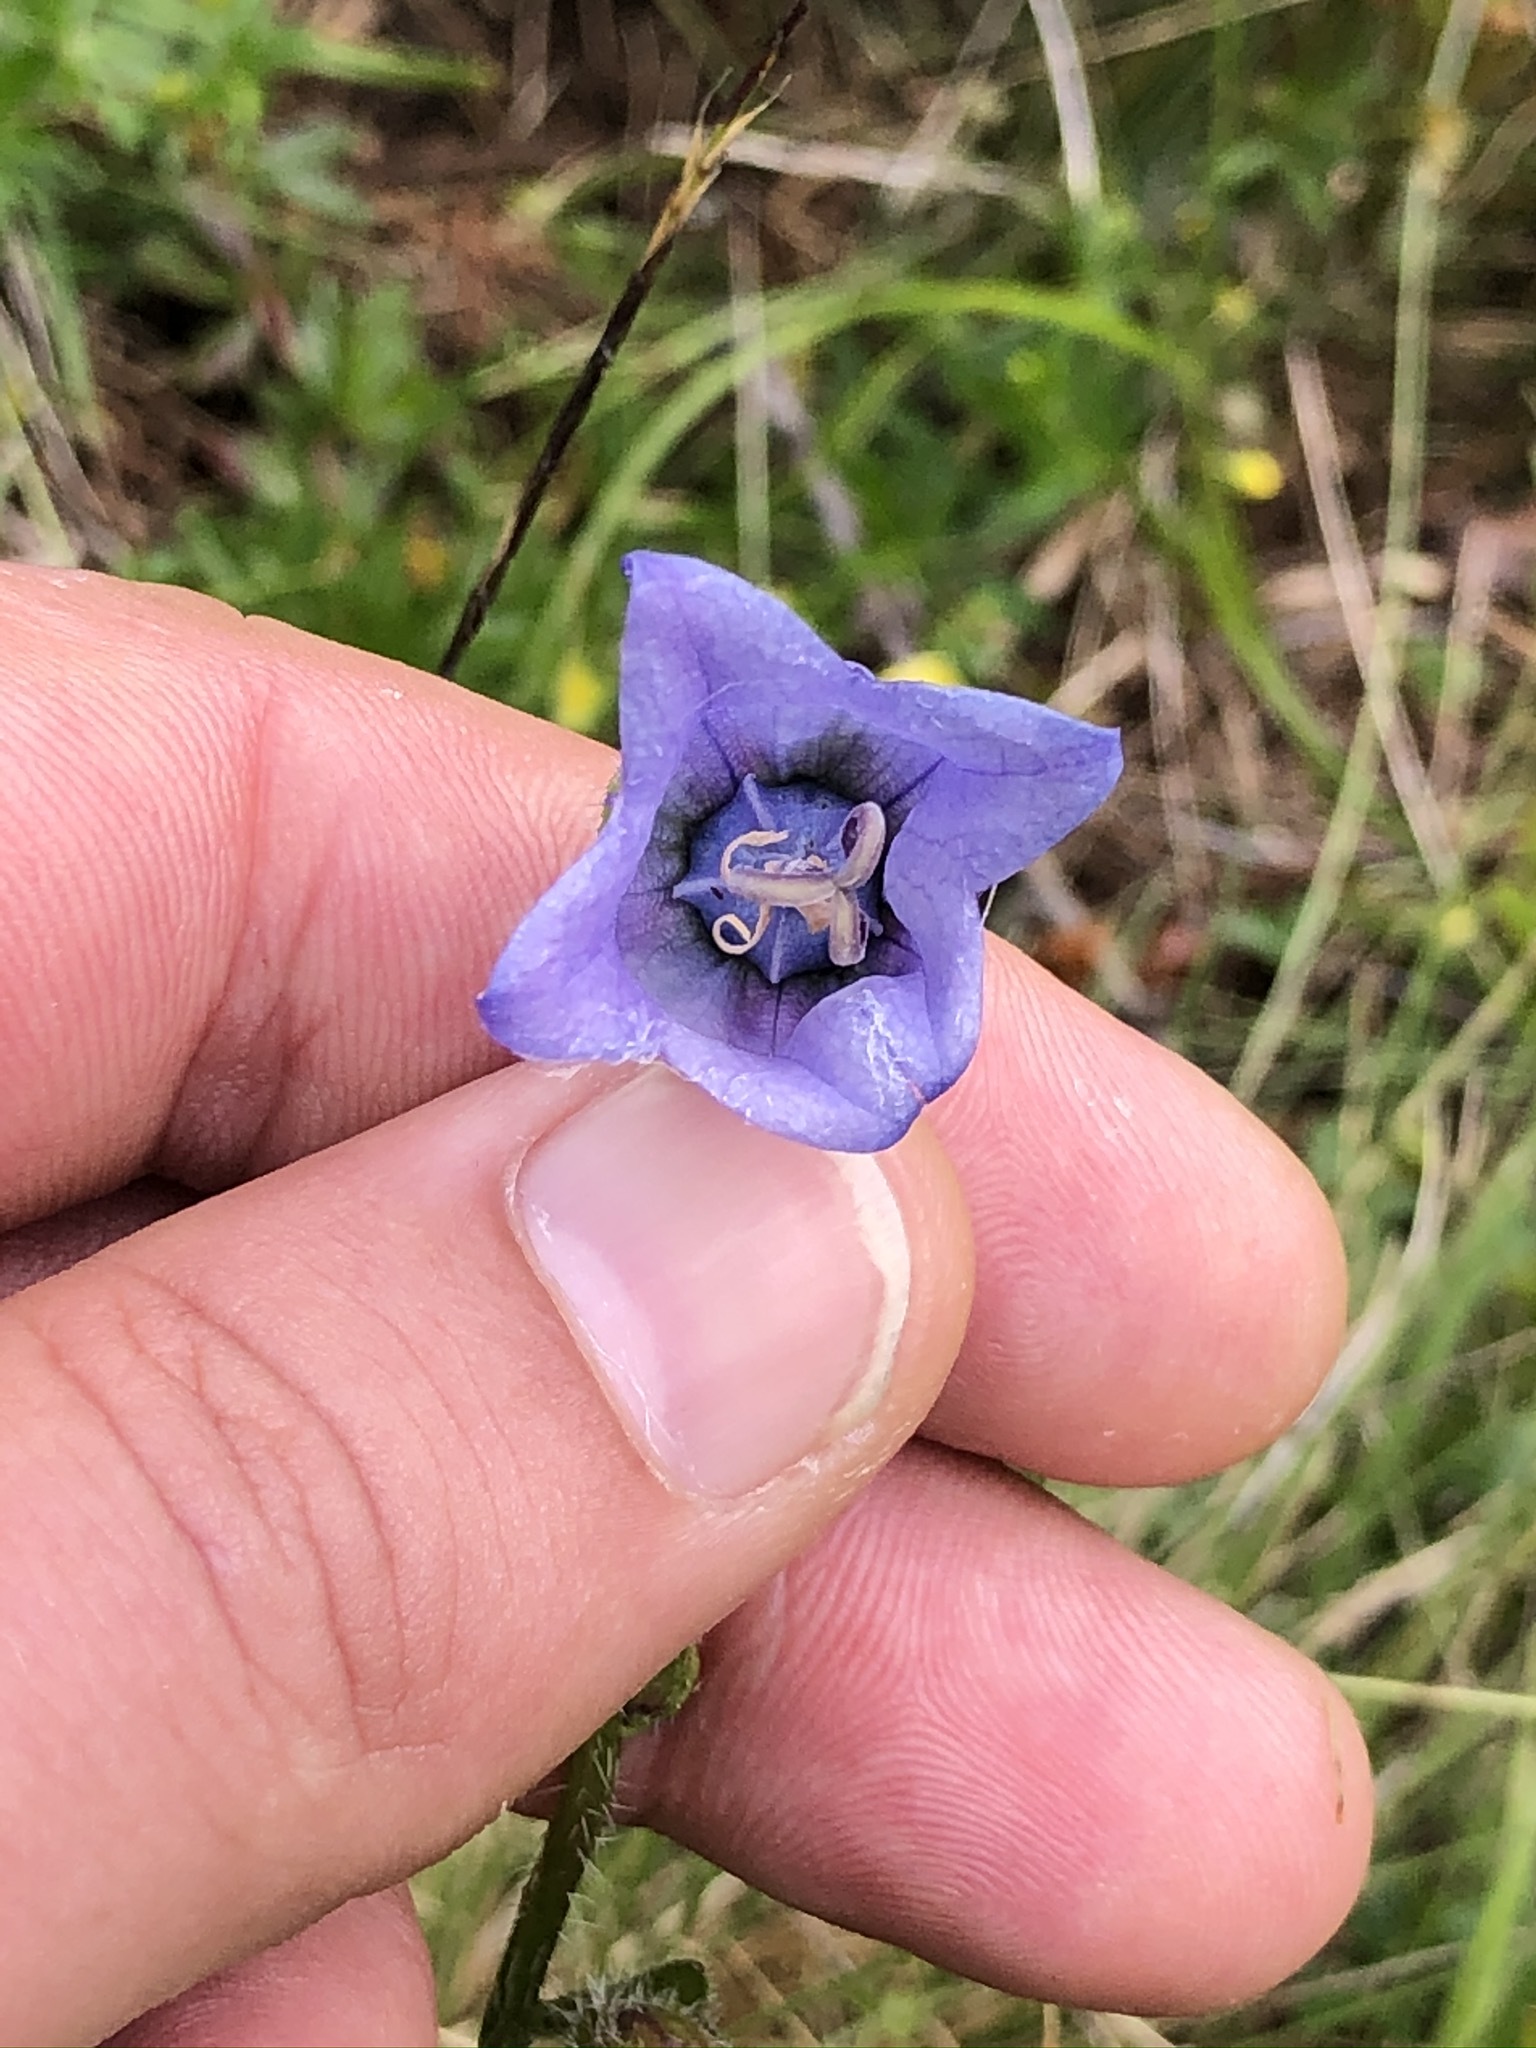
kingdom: Plantae
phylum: Tracheophyta
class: Magnoliopsida
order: Asterales
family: Campanulaceae
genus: Campanula
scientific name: Campanula barbata
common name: Bearded bellflower
